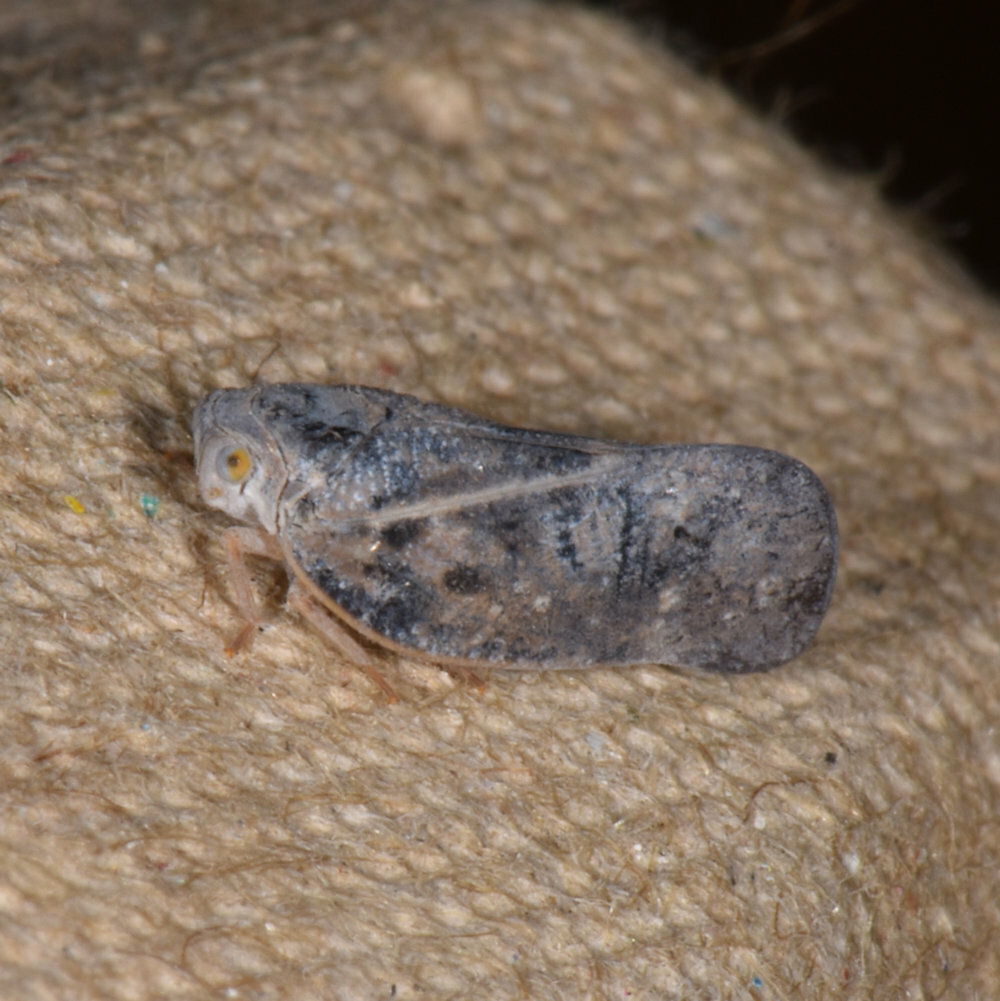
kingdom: Animalia
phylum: Arthropoda
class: Insecta
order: Hemiptera
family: Flatidae
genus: Metcalfa
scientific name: Metcalfa pruinosa
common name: Citrus flatid planthopper
